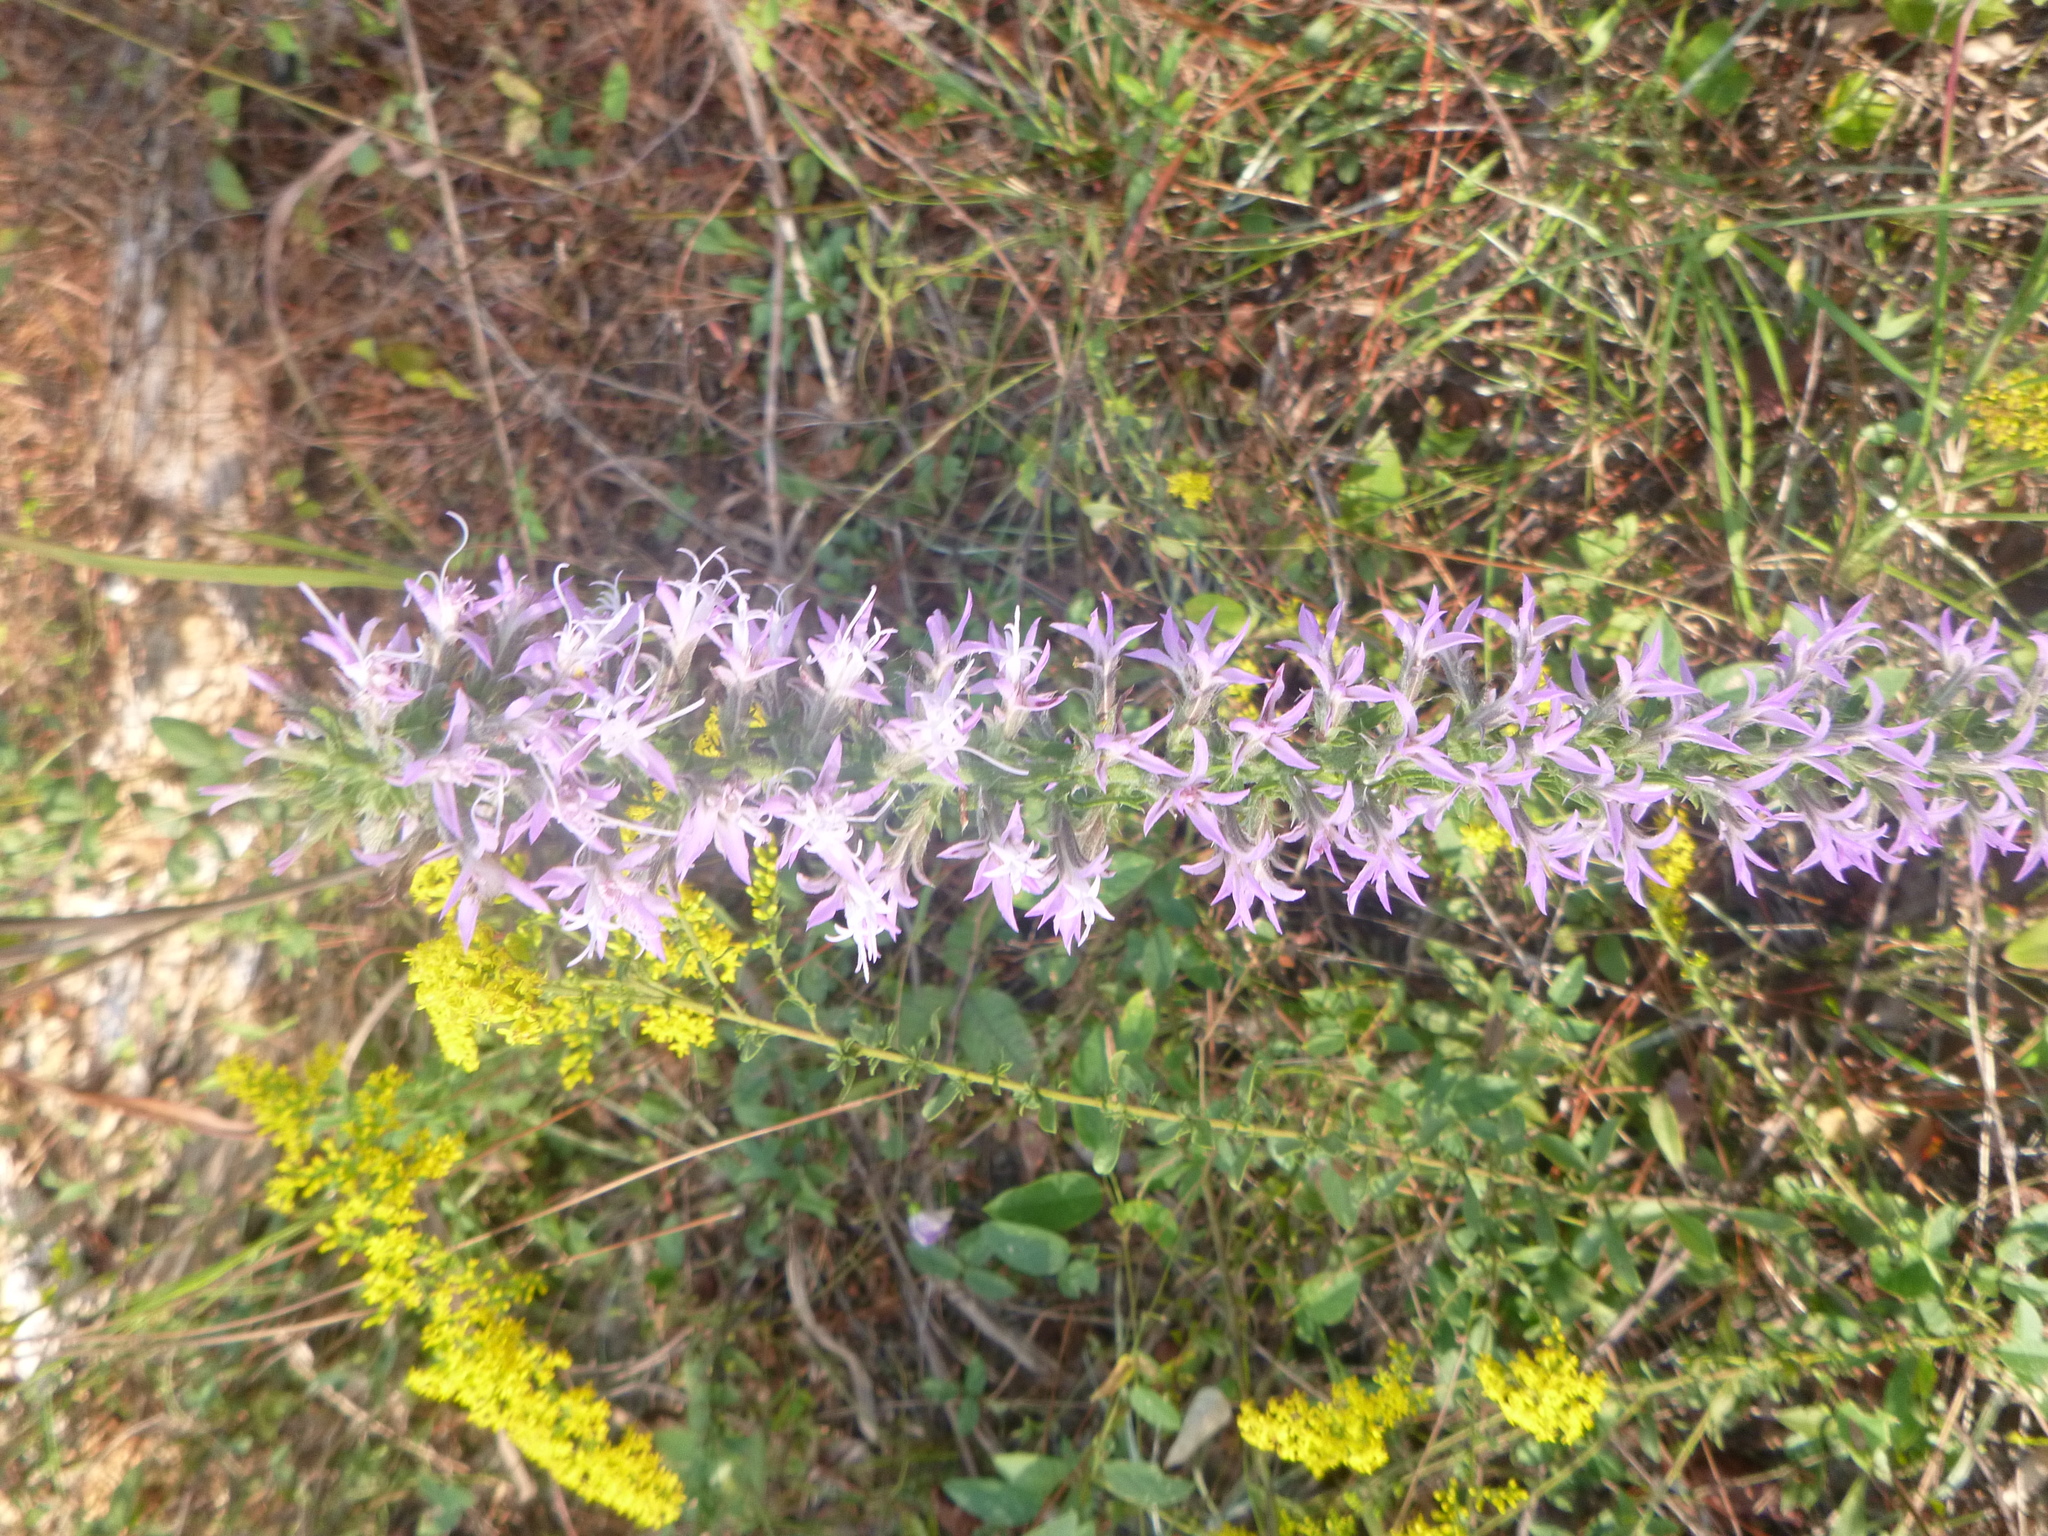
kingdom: Plantae
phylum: Tracheophyta
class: Magnoliopsida
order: Asterales
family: Asteraceae
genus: Liatris
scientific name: Liatris elegans
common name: Pinkscale gayfeather
